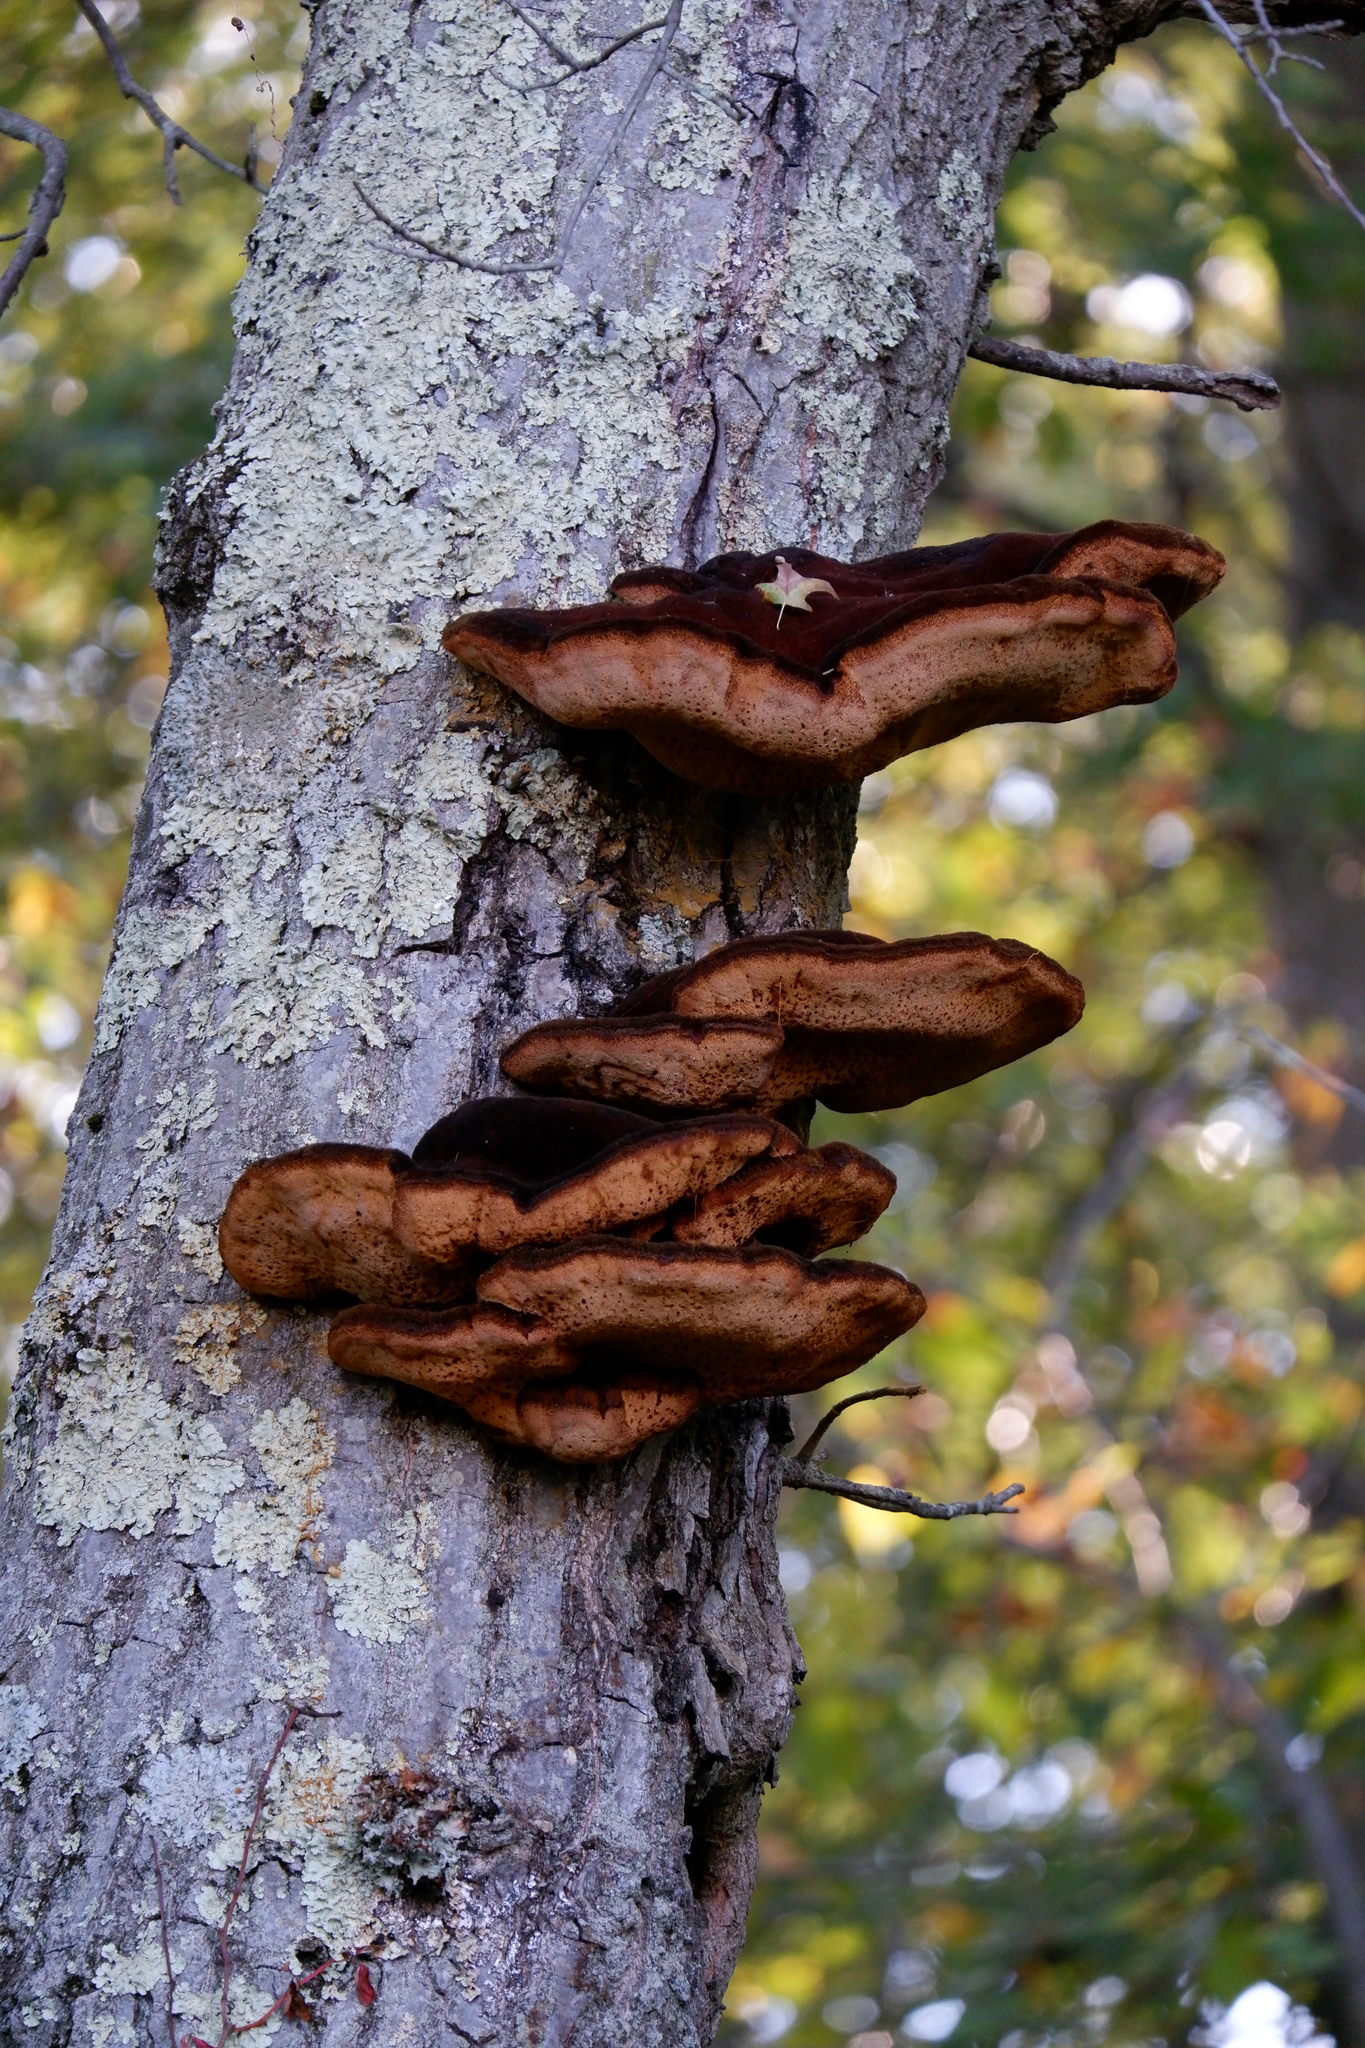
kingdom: Fungi
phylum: Basidiomycota
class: Agaricomycetes
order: Hymenochaetales
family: Hymenochaetaceae
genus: Inonotus
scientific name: Inonotus hispidus
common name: Shaggy bracket
